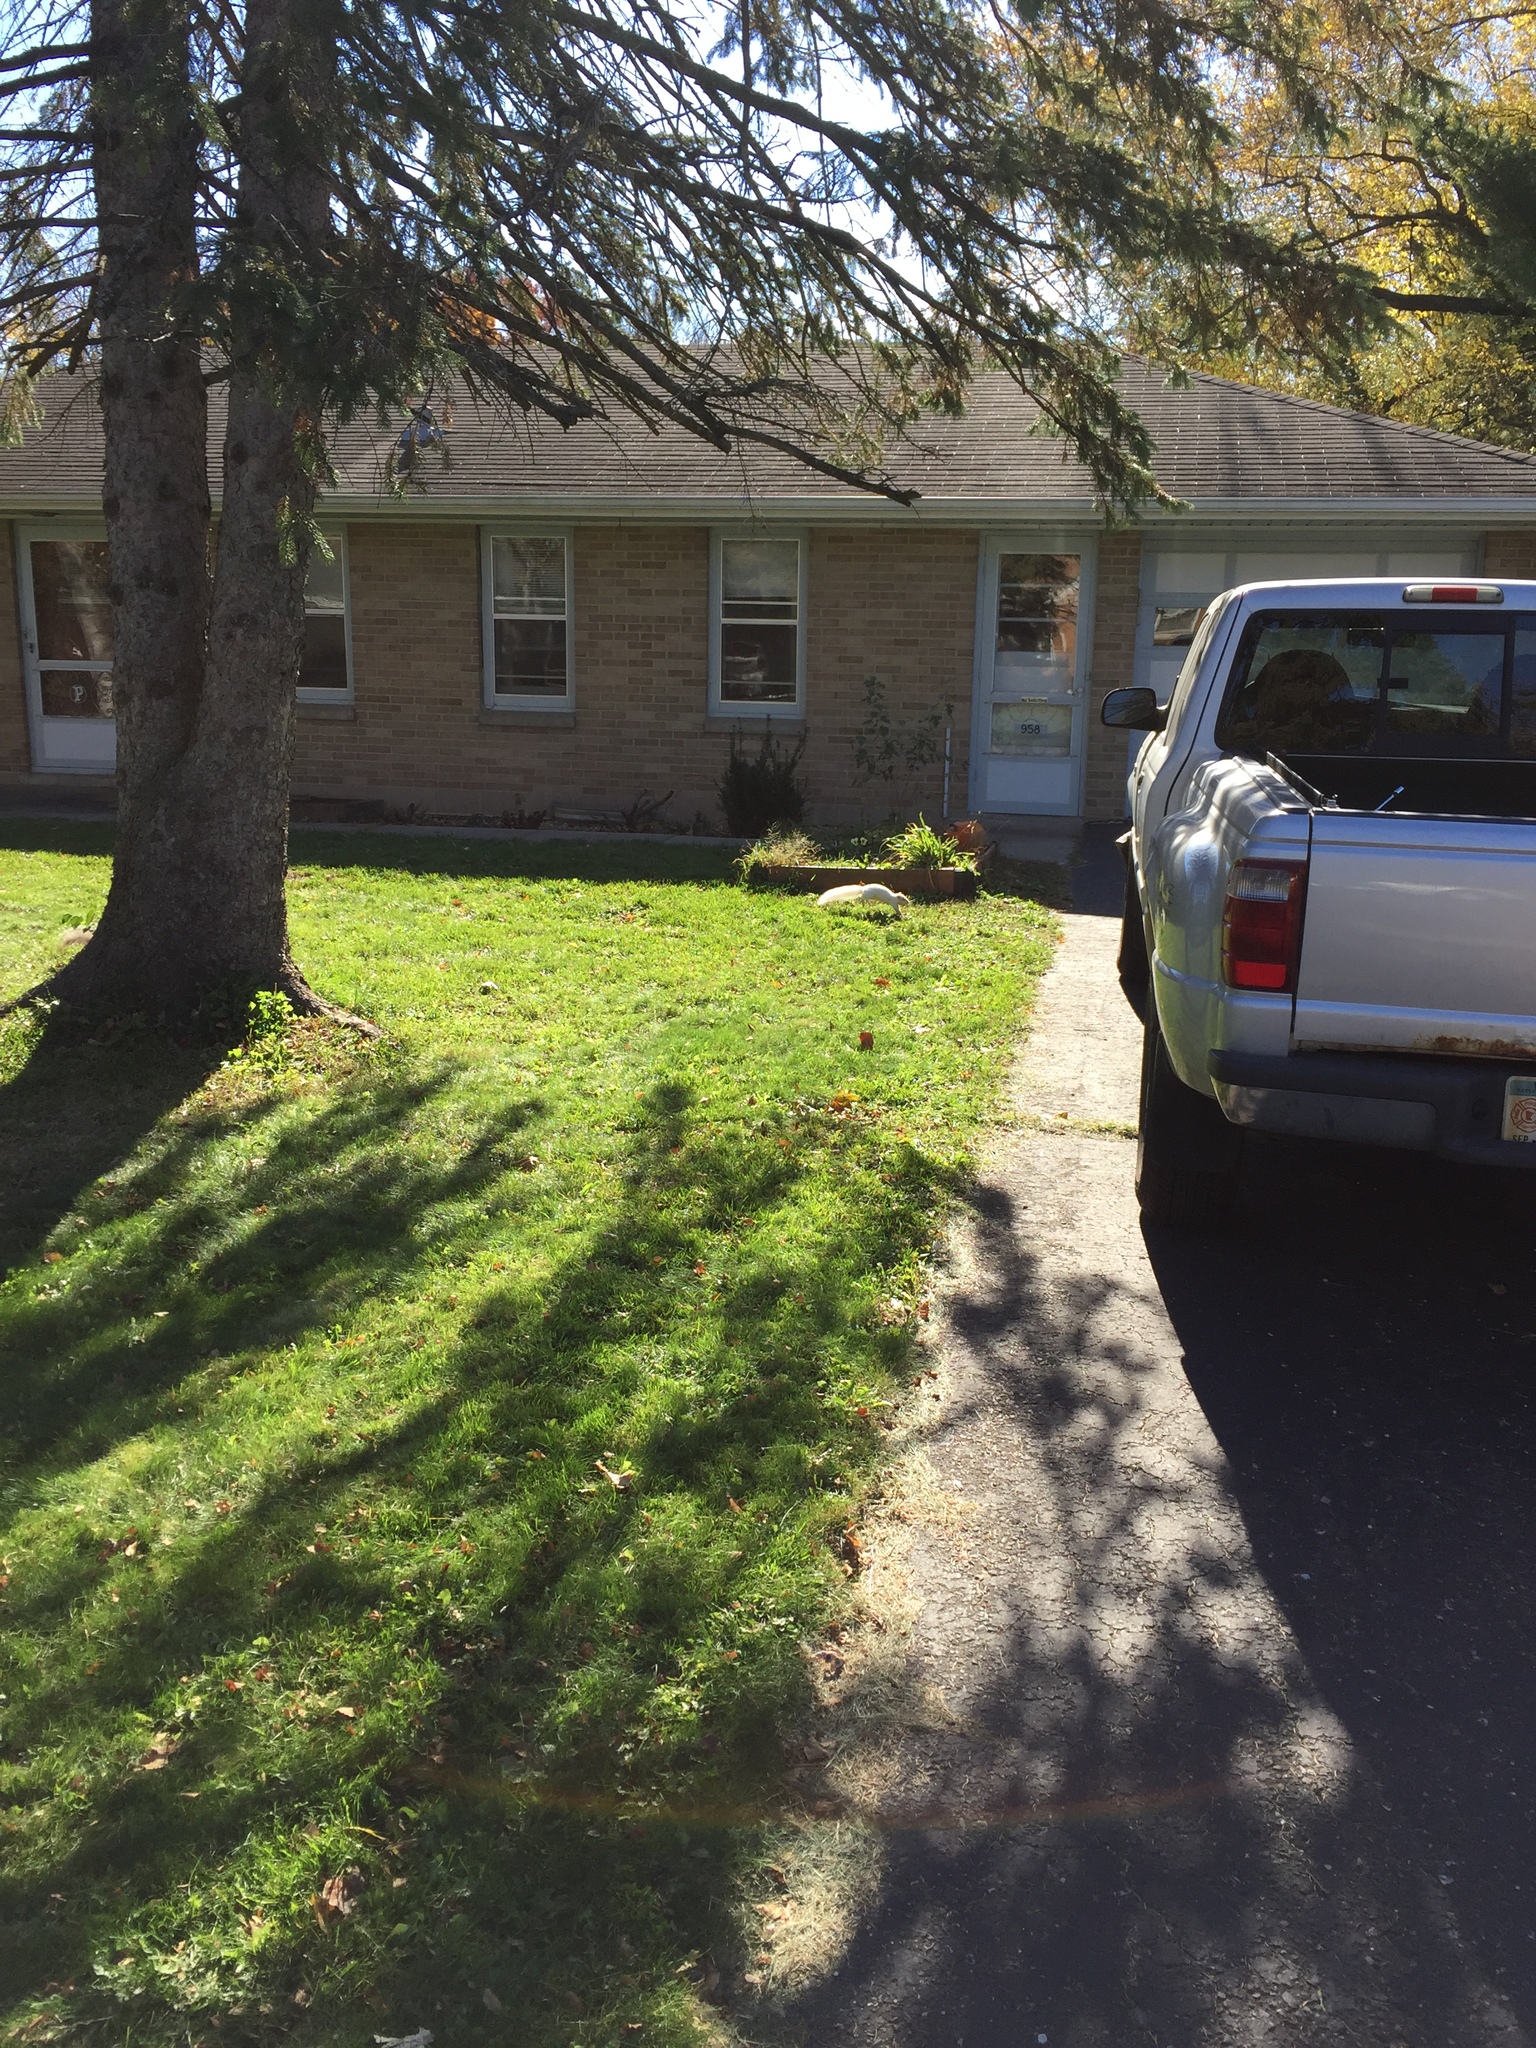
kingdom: Animalia
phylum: Chordata
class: Mammalia
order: Rodentia
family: Sciuridae
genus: Sciurus
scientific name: Sciurus carolinensis
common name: Eastern gray squirrel
